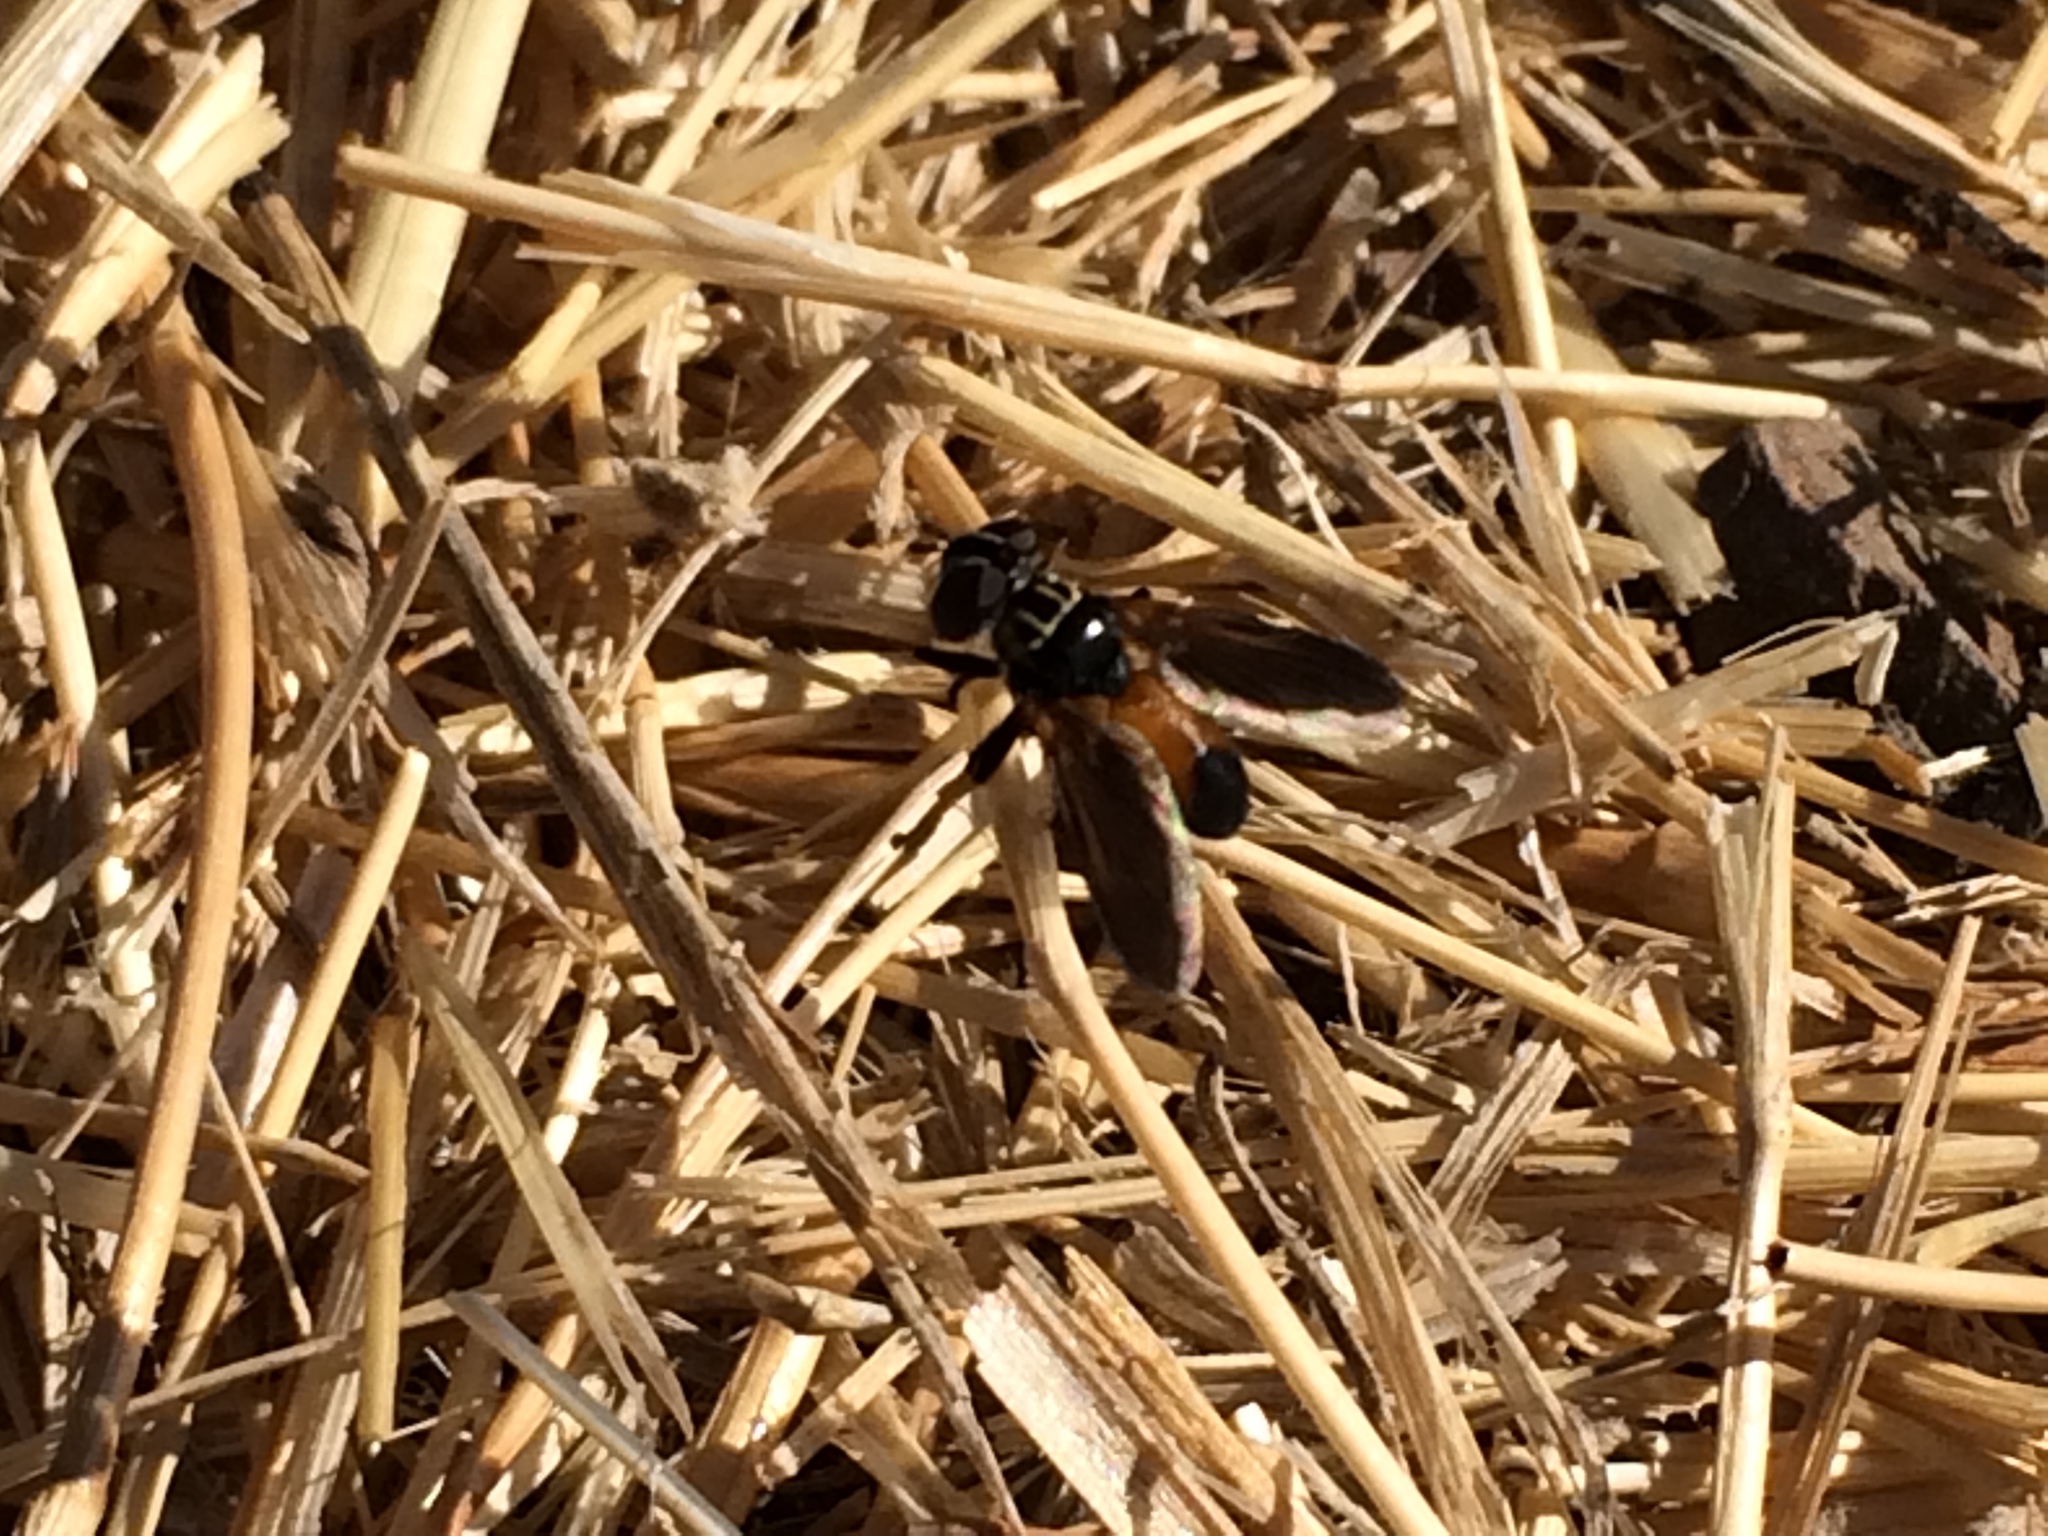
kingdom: Animalia
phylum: Arthropoda
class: Insecta
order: Diptera
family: Tachinidae
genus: Trichopoda
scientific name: Trichopoda pennipes
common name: Tachinid fly
